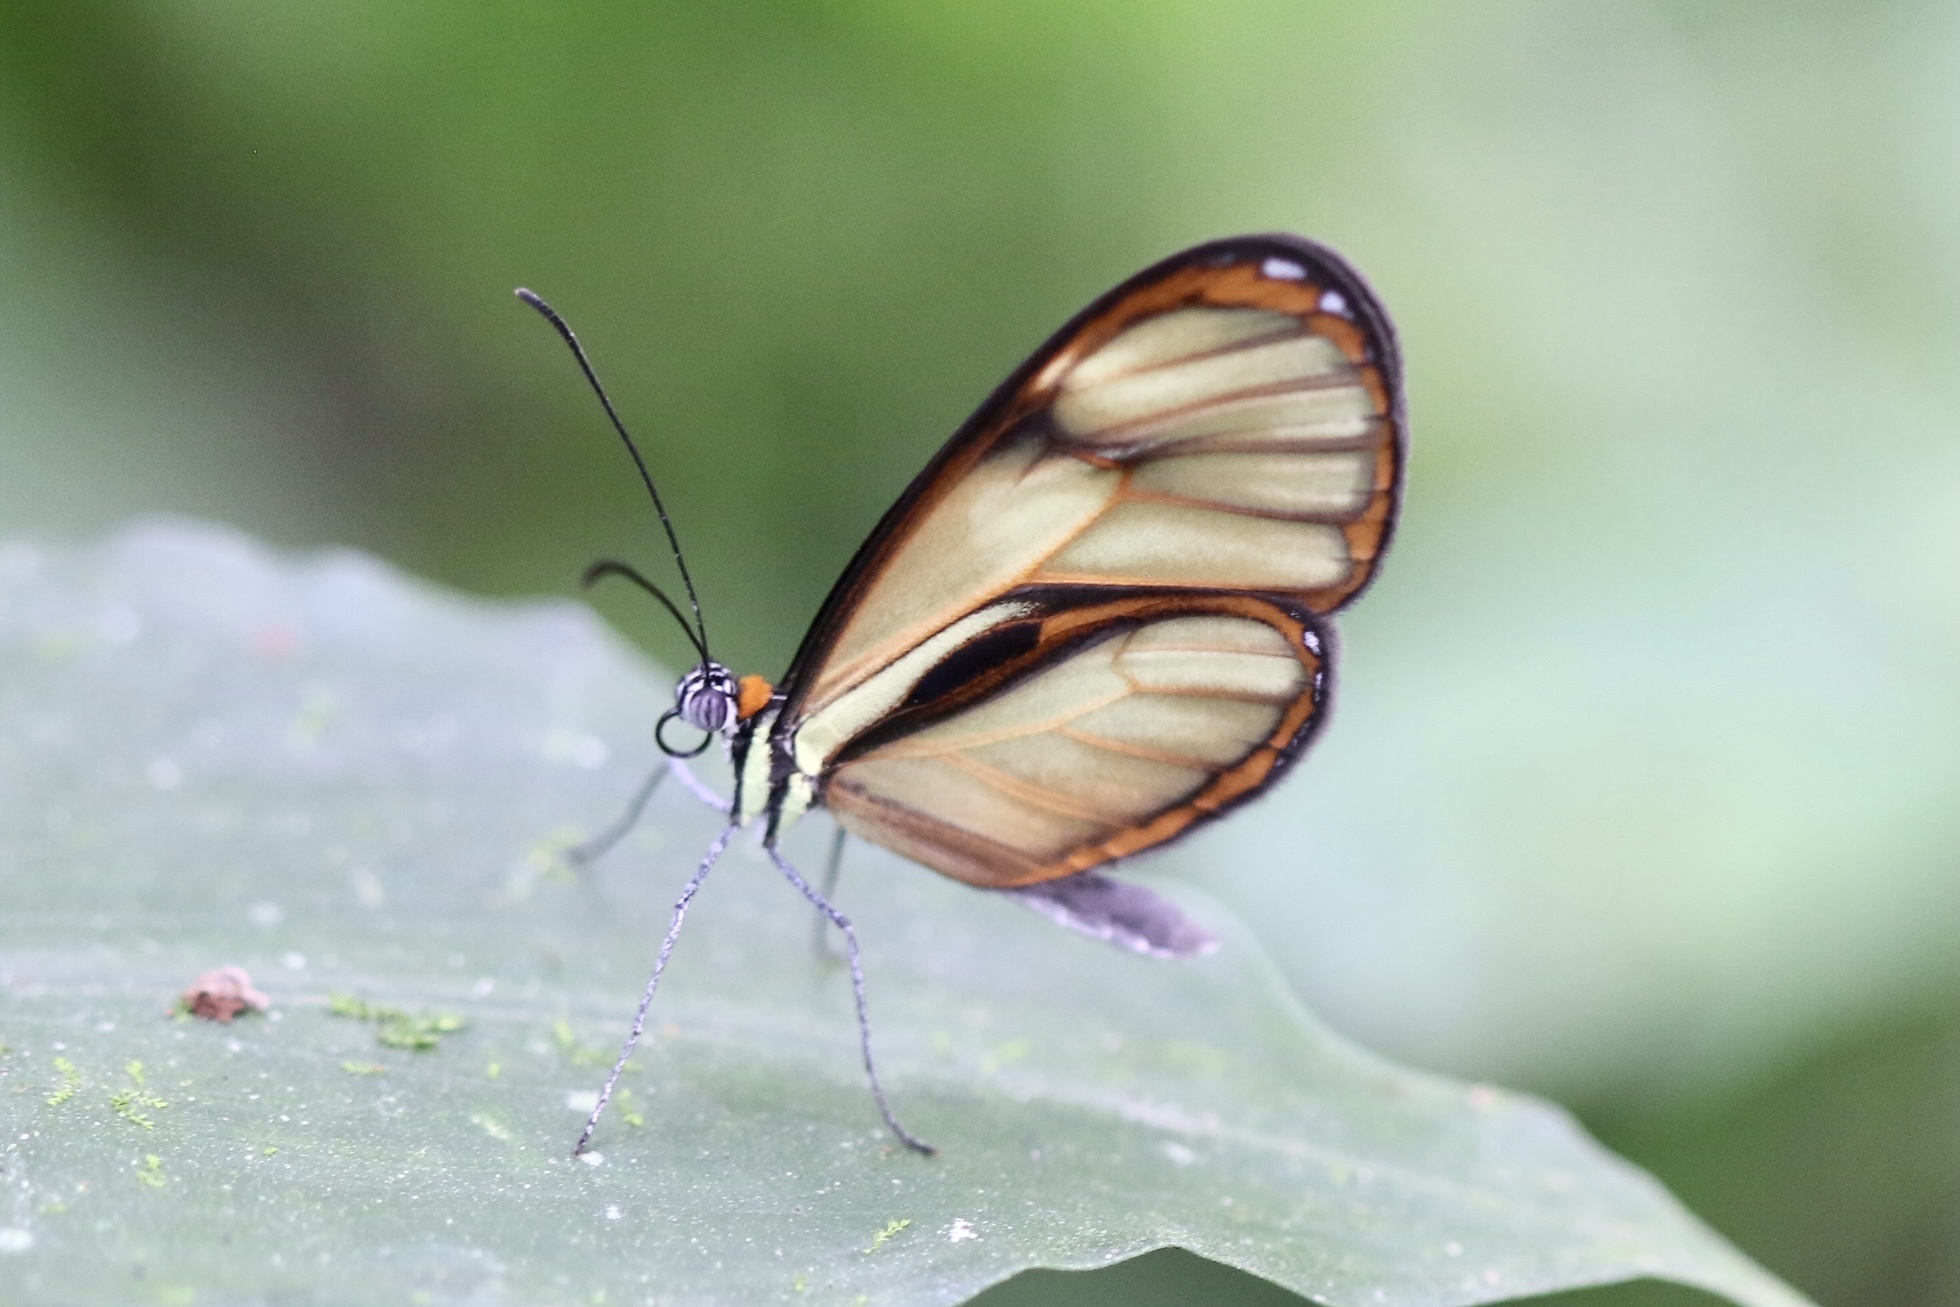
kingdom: Animalia
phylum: Arthropoda
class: Insecta
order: Lepidoptera
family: Nymphalidae
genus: Ithomia
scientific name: Ithomia pseudoagalla
